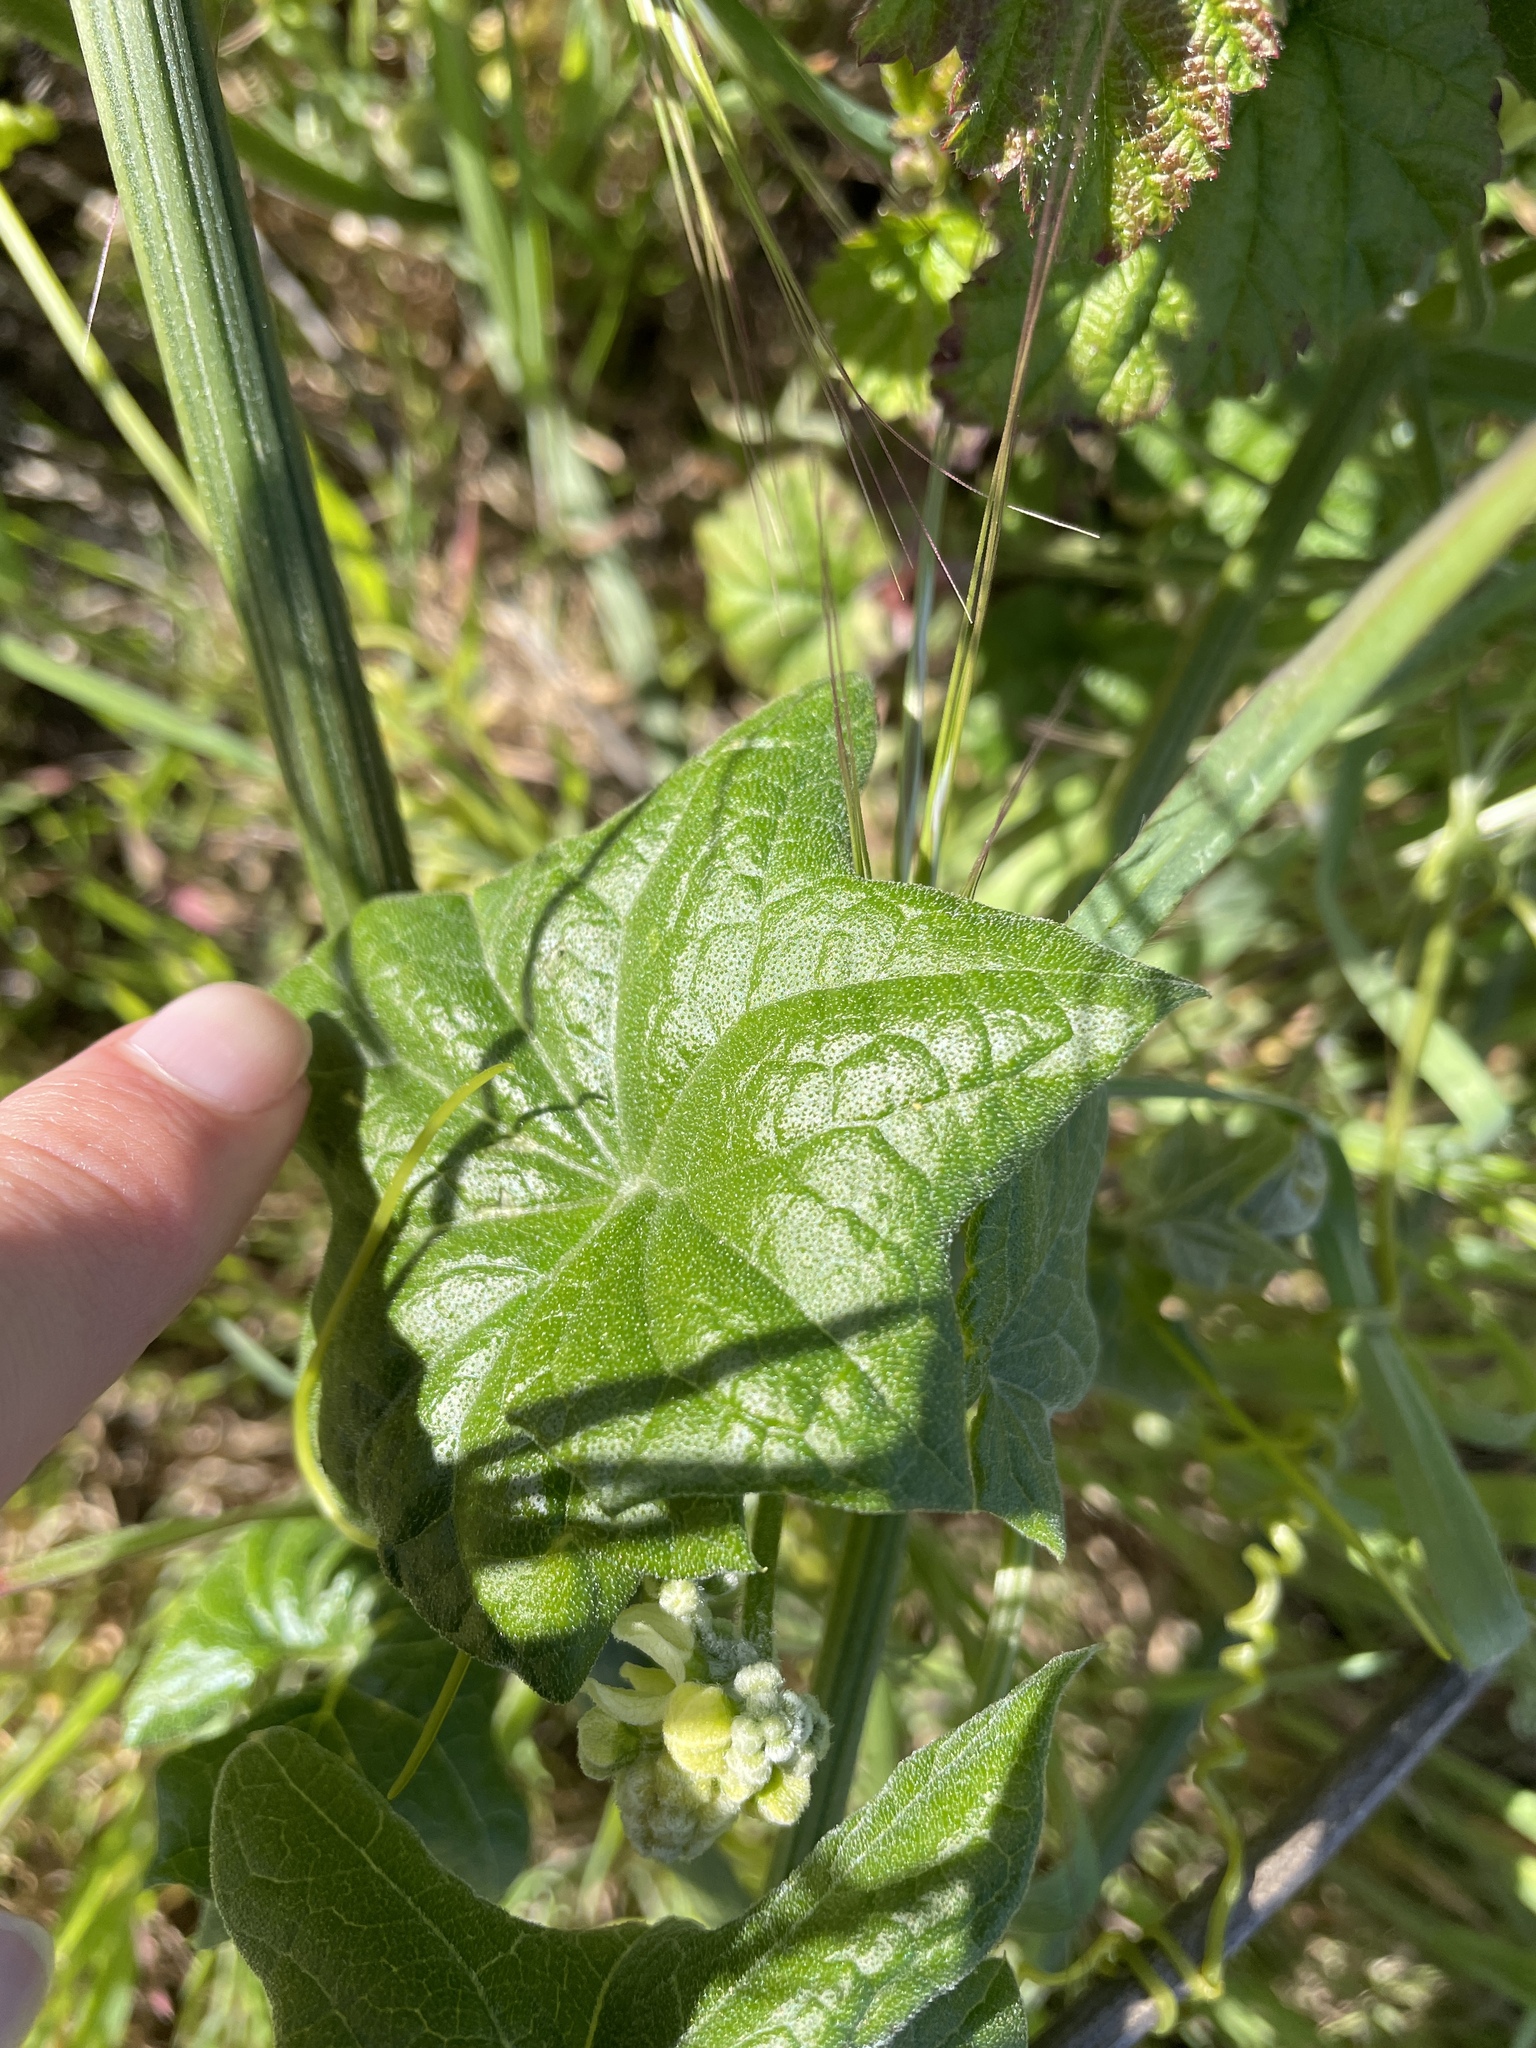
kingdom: Plantae
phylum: Tracheophyta
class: Magnoliopsida
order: Cucurbitales
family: Cucurbitaceae
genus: Marah
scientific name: Marah fabacea
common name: California manroot
